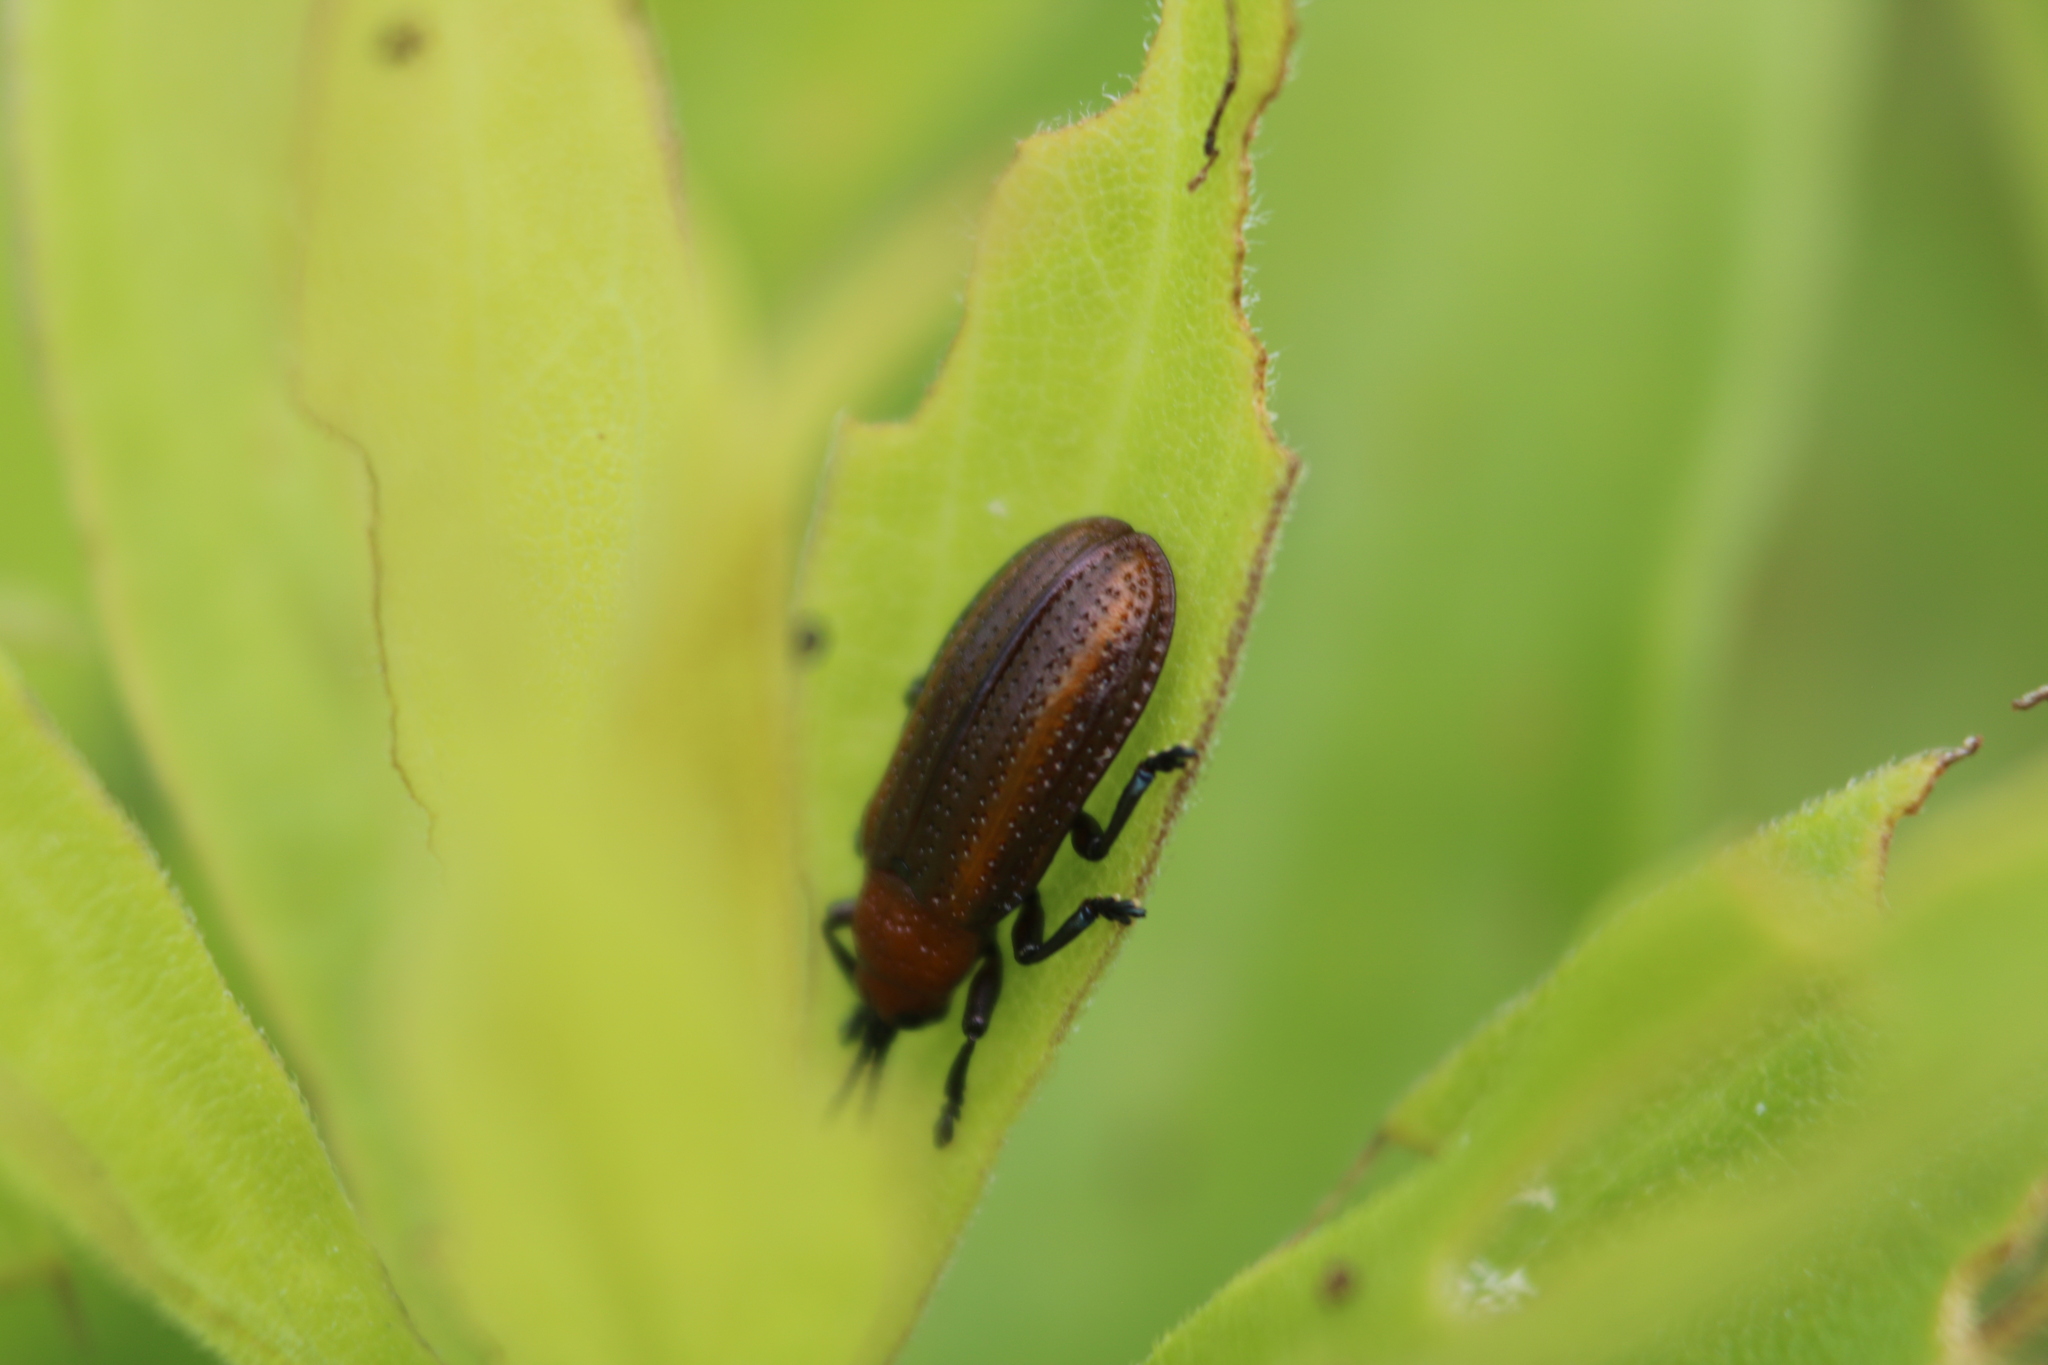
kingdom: Animalia
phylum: Arthropoda
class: Insecta
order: Coleoptera
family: Chrysomelidae
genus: Microrhopala
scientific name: Microrhopala vittata
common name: Goldenrod leaf miner beetle
